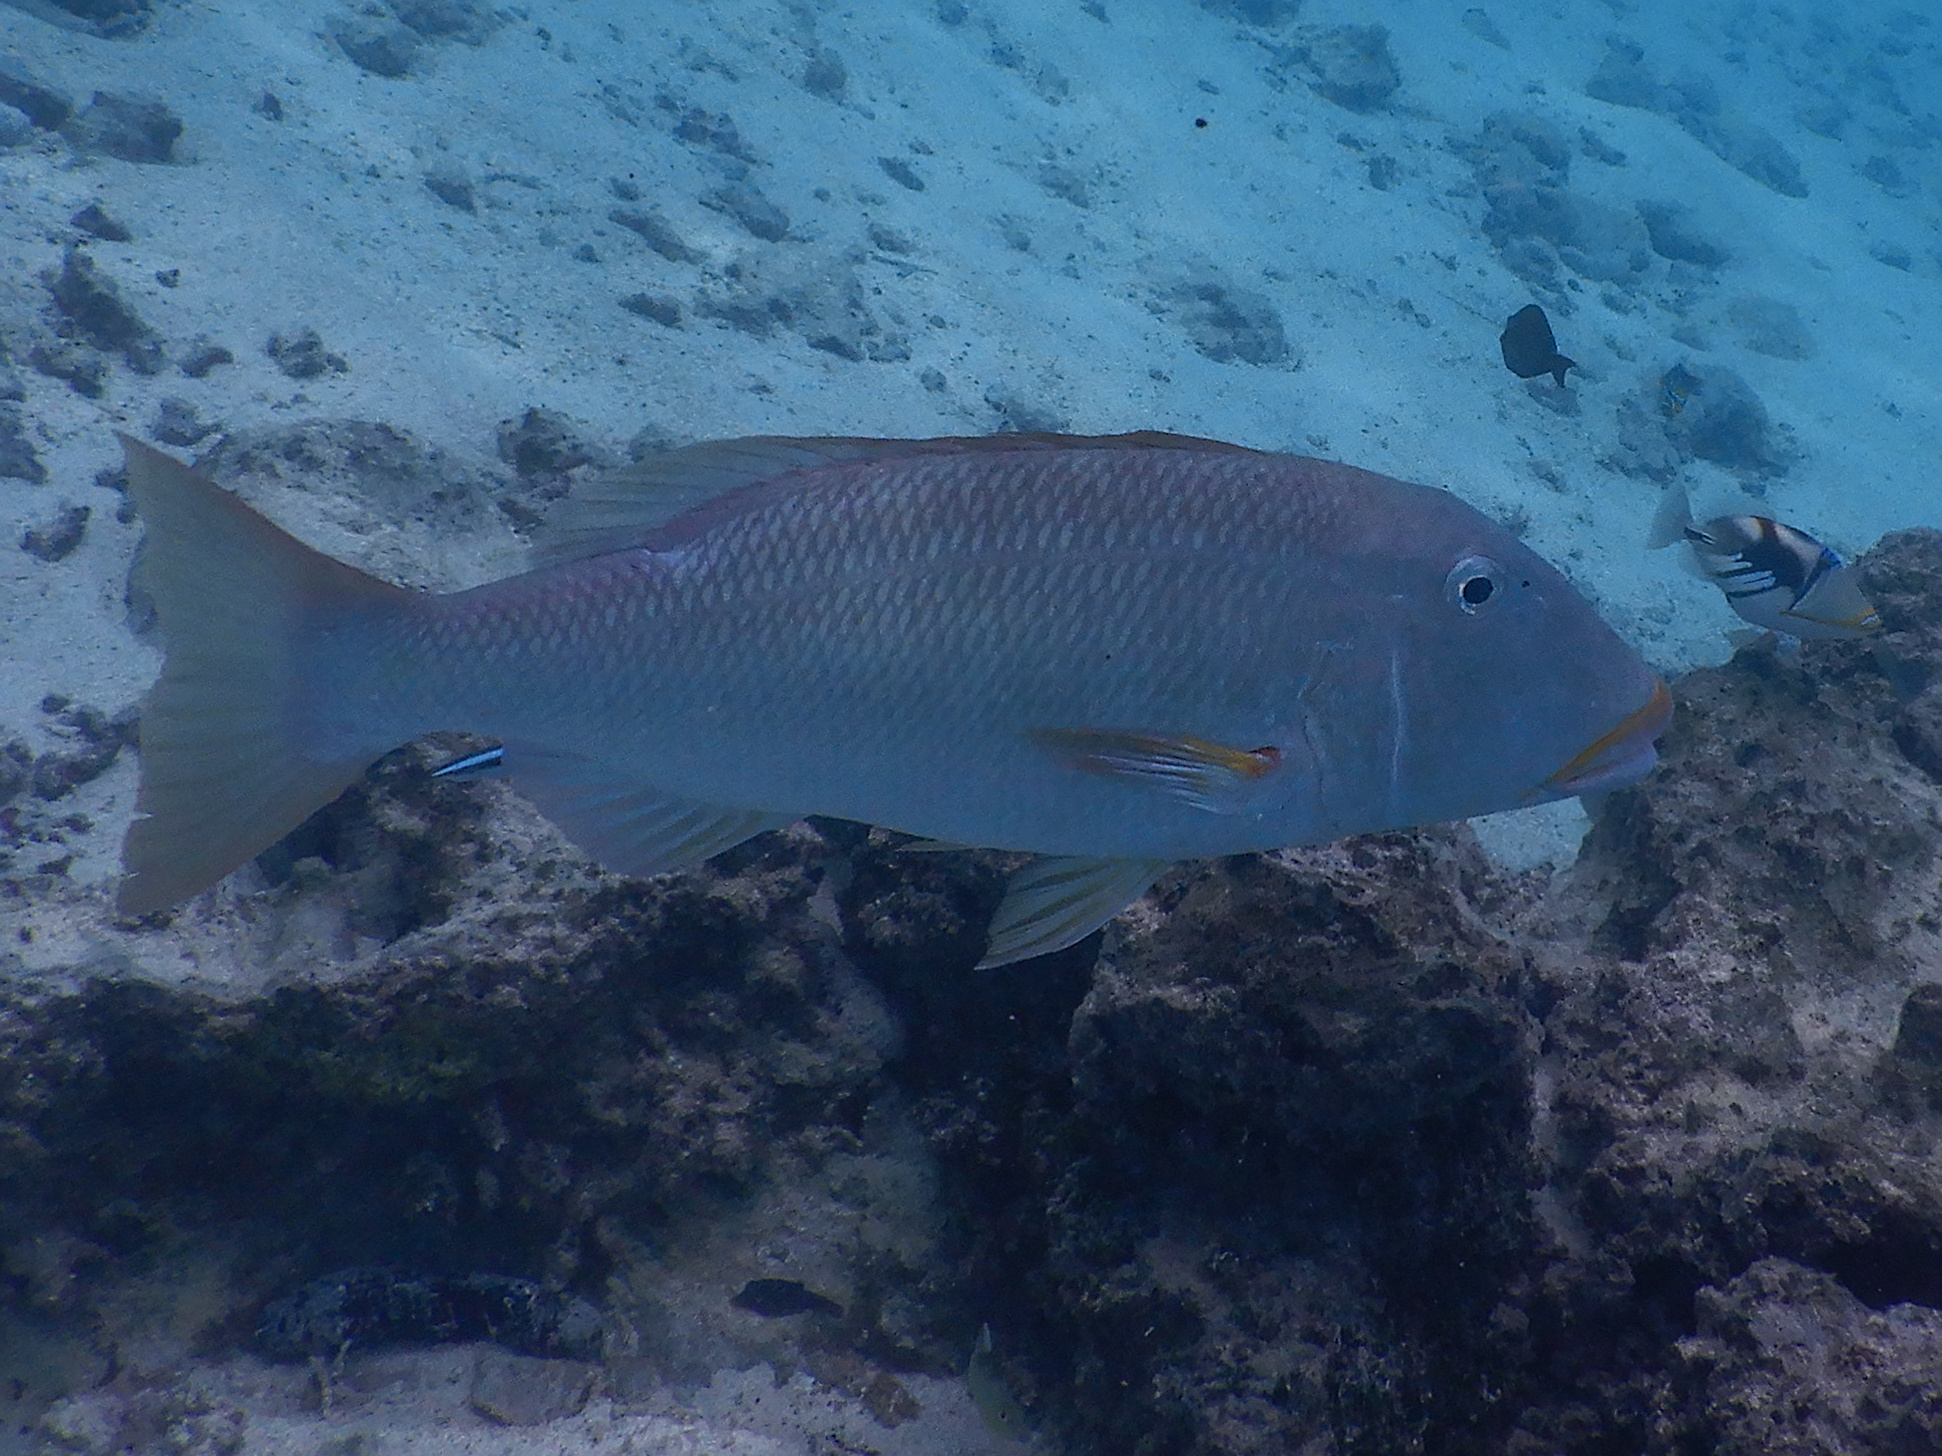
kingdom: Animalia
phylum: Chordata
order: Perciformes
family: Lethrinidae
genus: Lethrinus
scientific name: Lethrinus xanthochilus
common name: Yellowlip emperor
